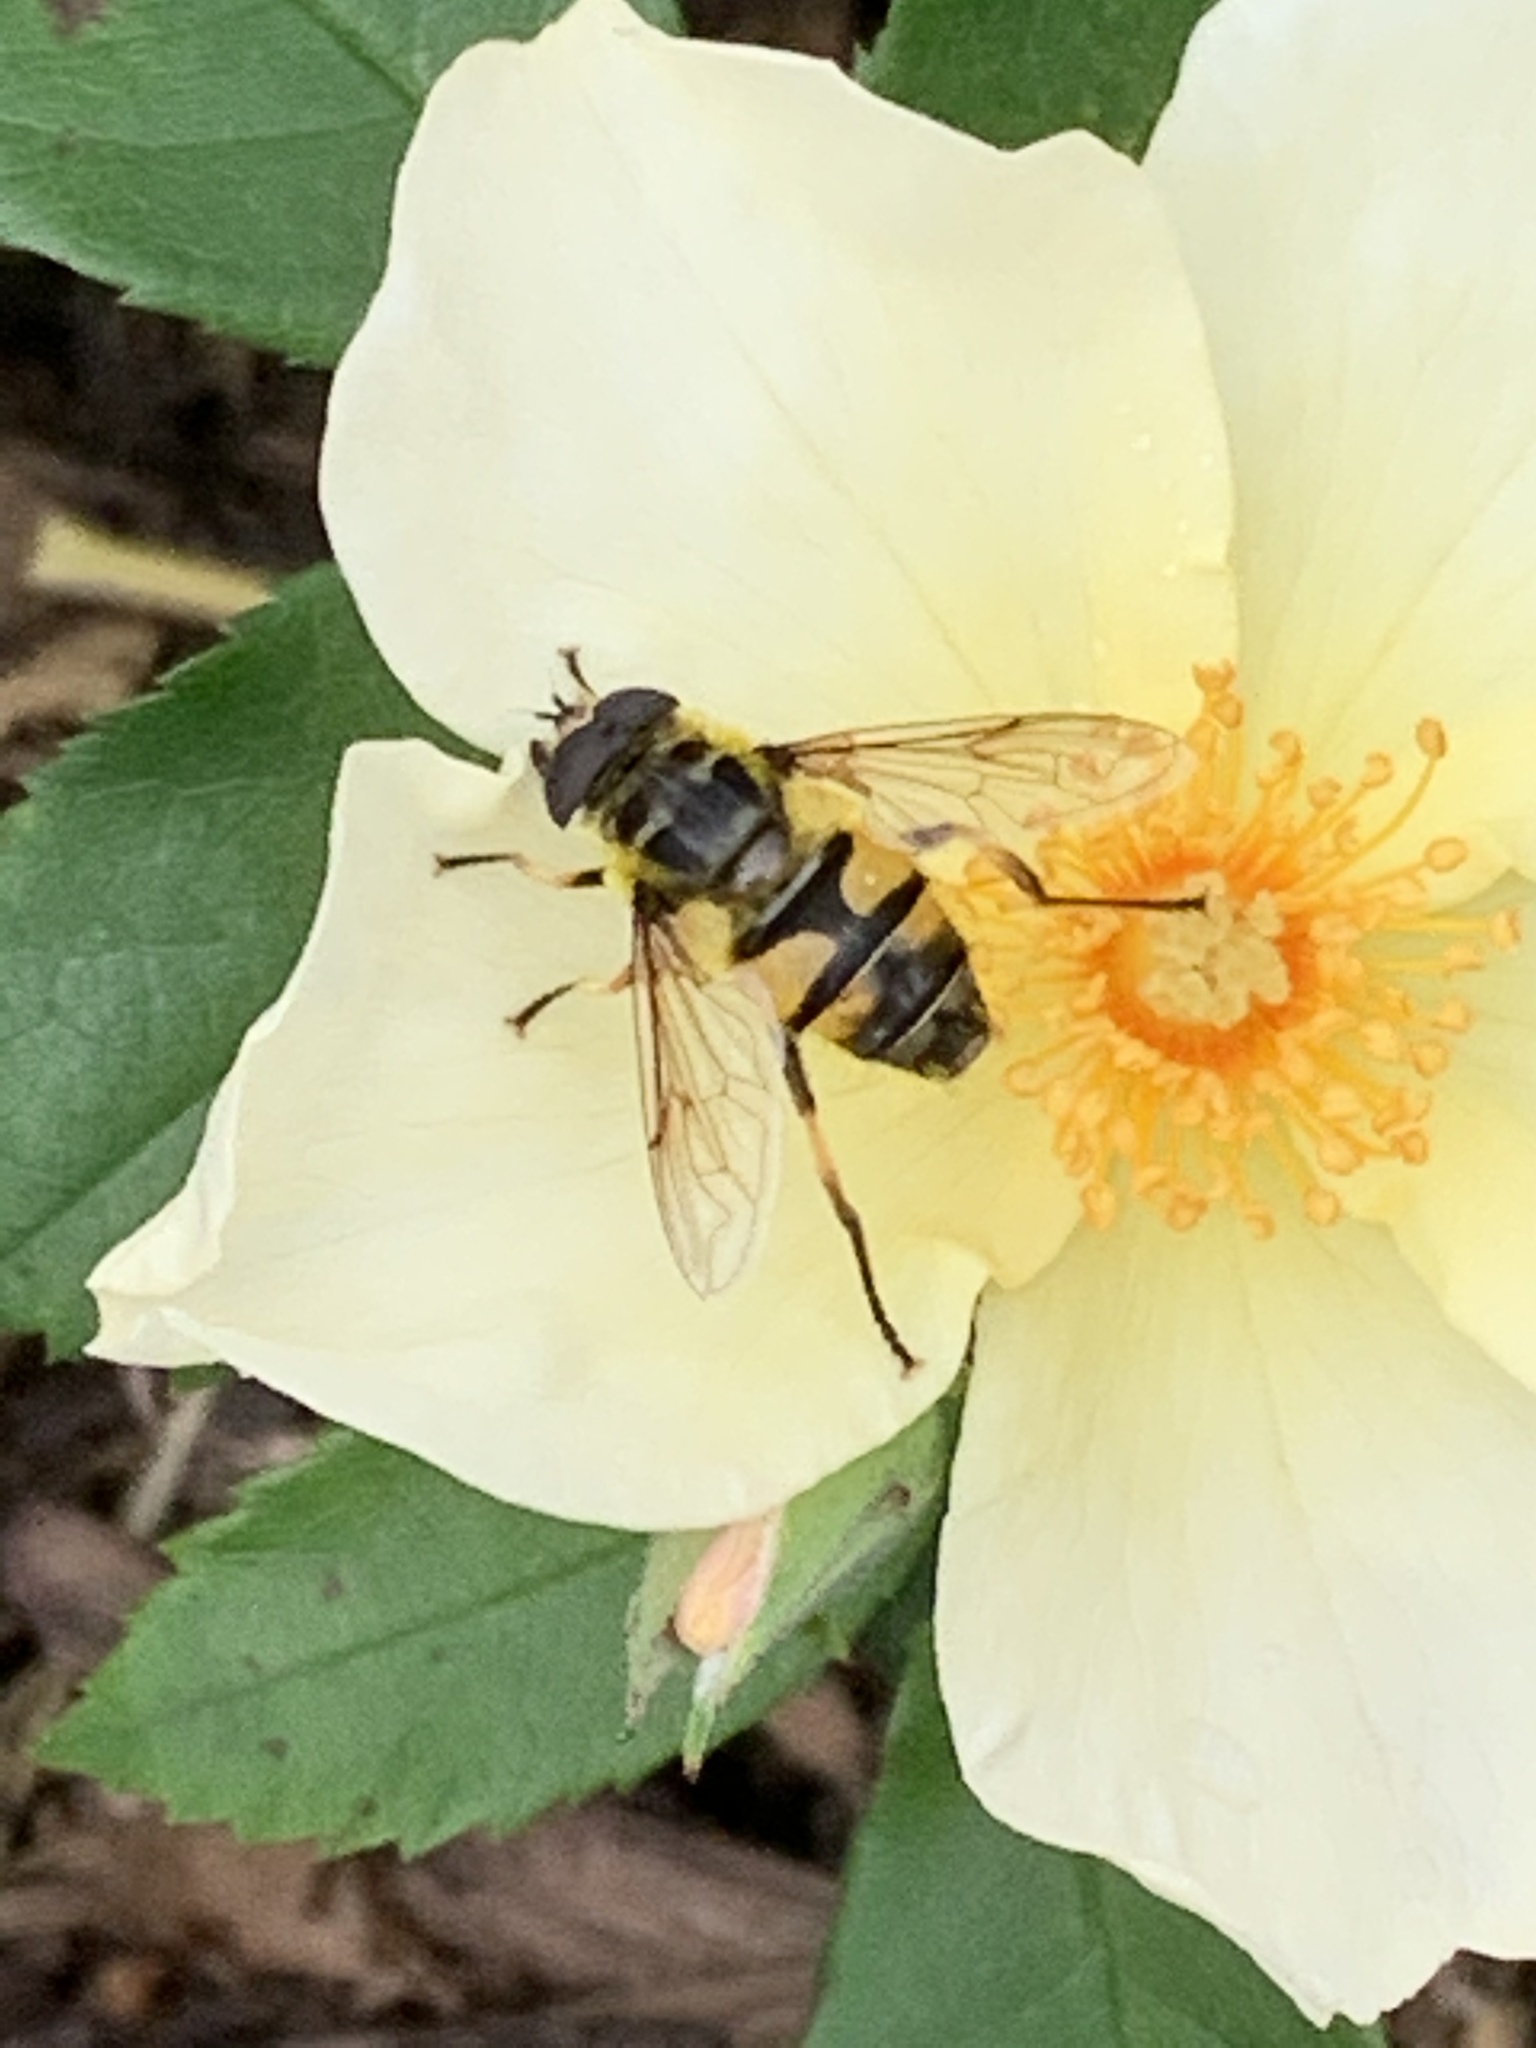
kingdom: Animalia
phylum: Arthropoda
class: Insecta
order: Diptera
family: Syrphidae
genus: Myathropa
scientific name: Myathropa florea
